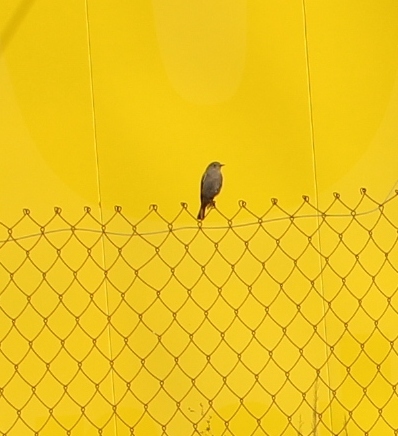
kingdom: Animalia
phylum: Chordata
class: Aves
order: Passeriformes
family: Muscicapidae
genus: Phoenicurus
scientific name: Phoenicurus ochruros
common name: Black redstart
